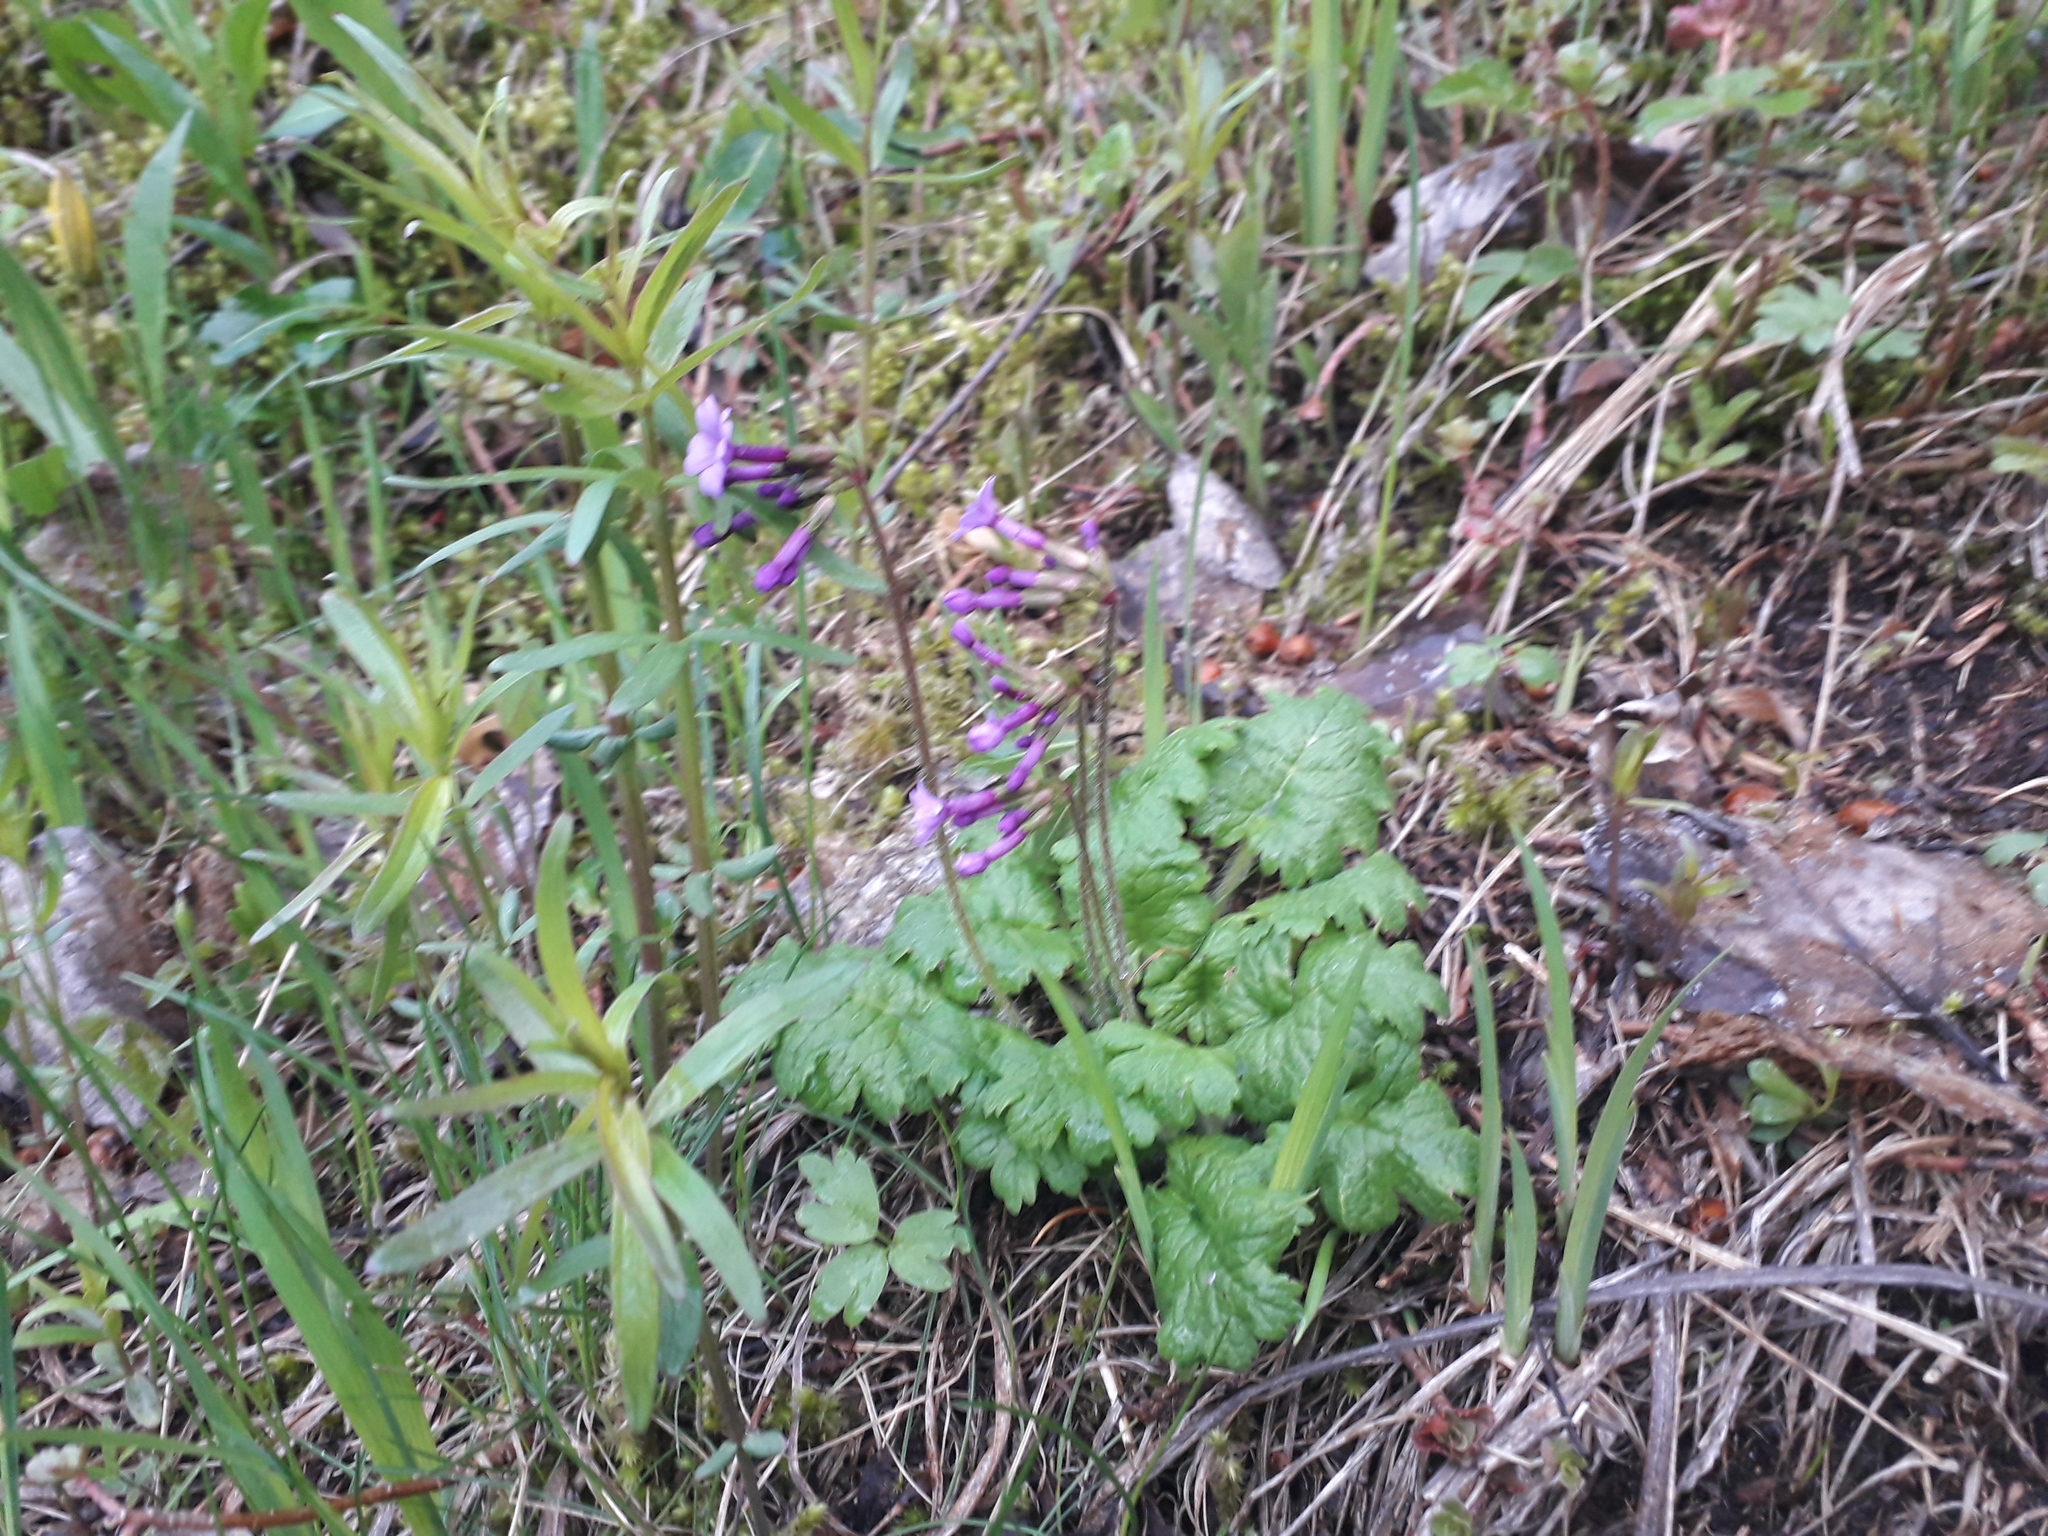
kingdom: Plantae
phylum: Tracheophyta
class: Magnoliopsida
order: Ericales
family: Primulaceae
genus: Primula
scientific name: Primula kaufmanniana
